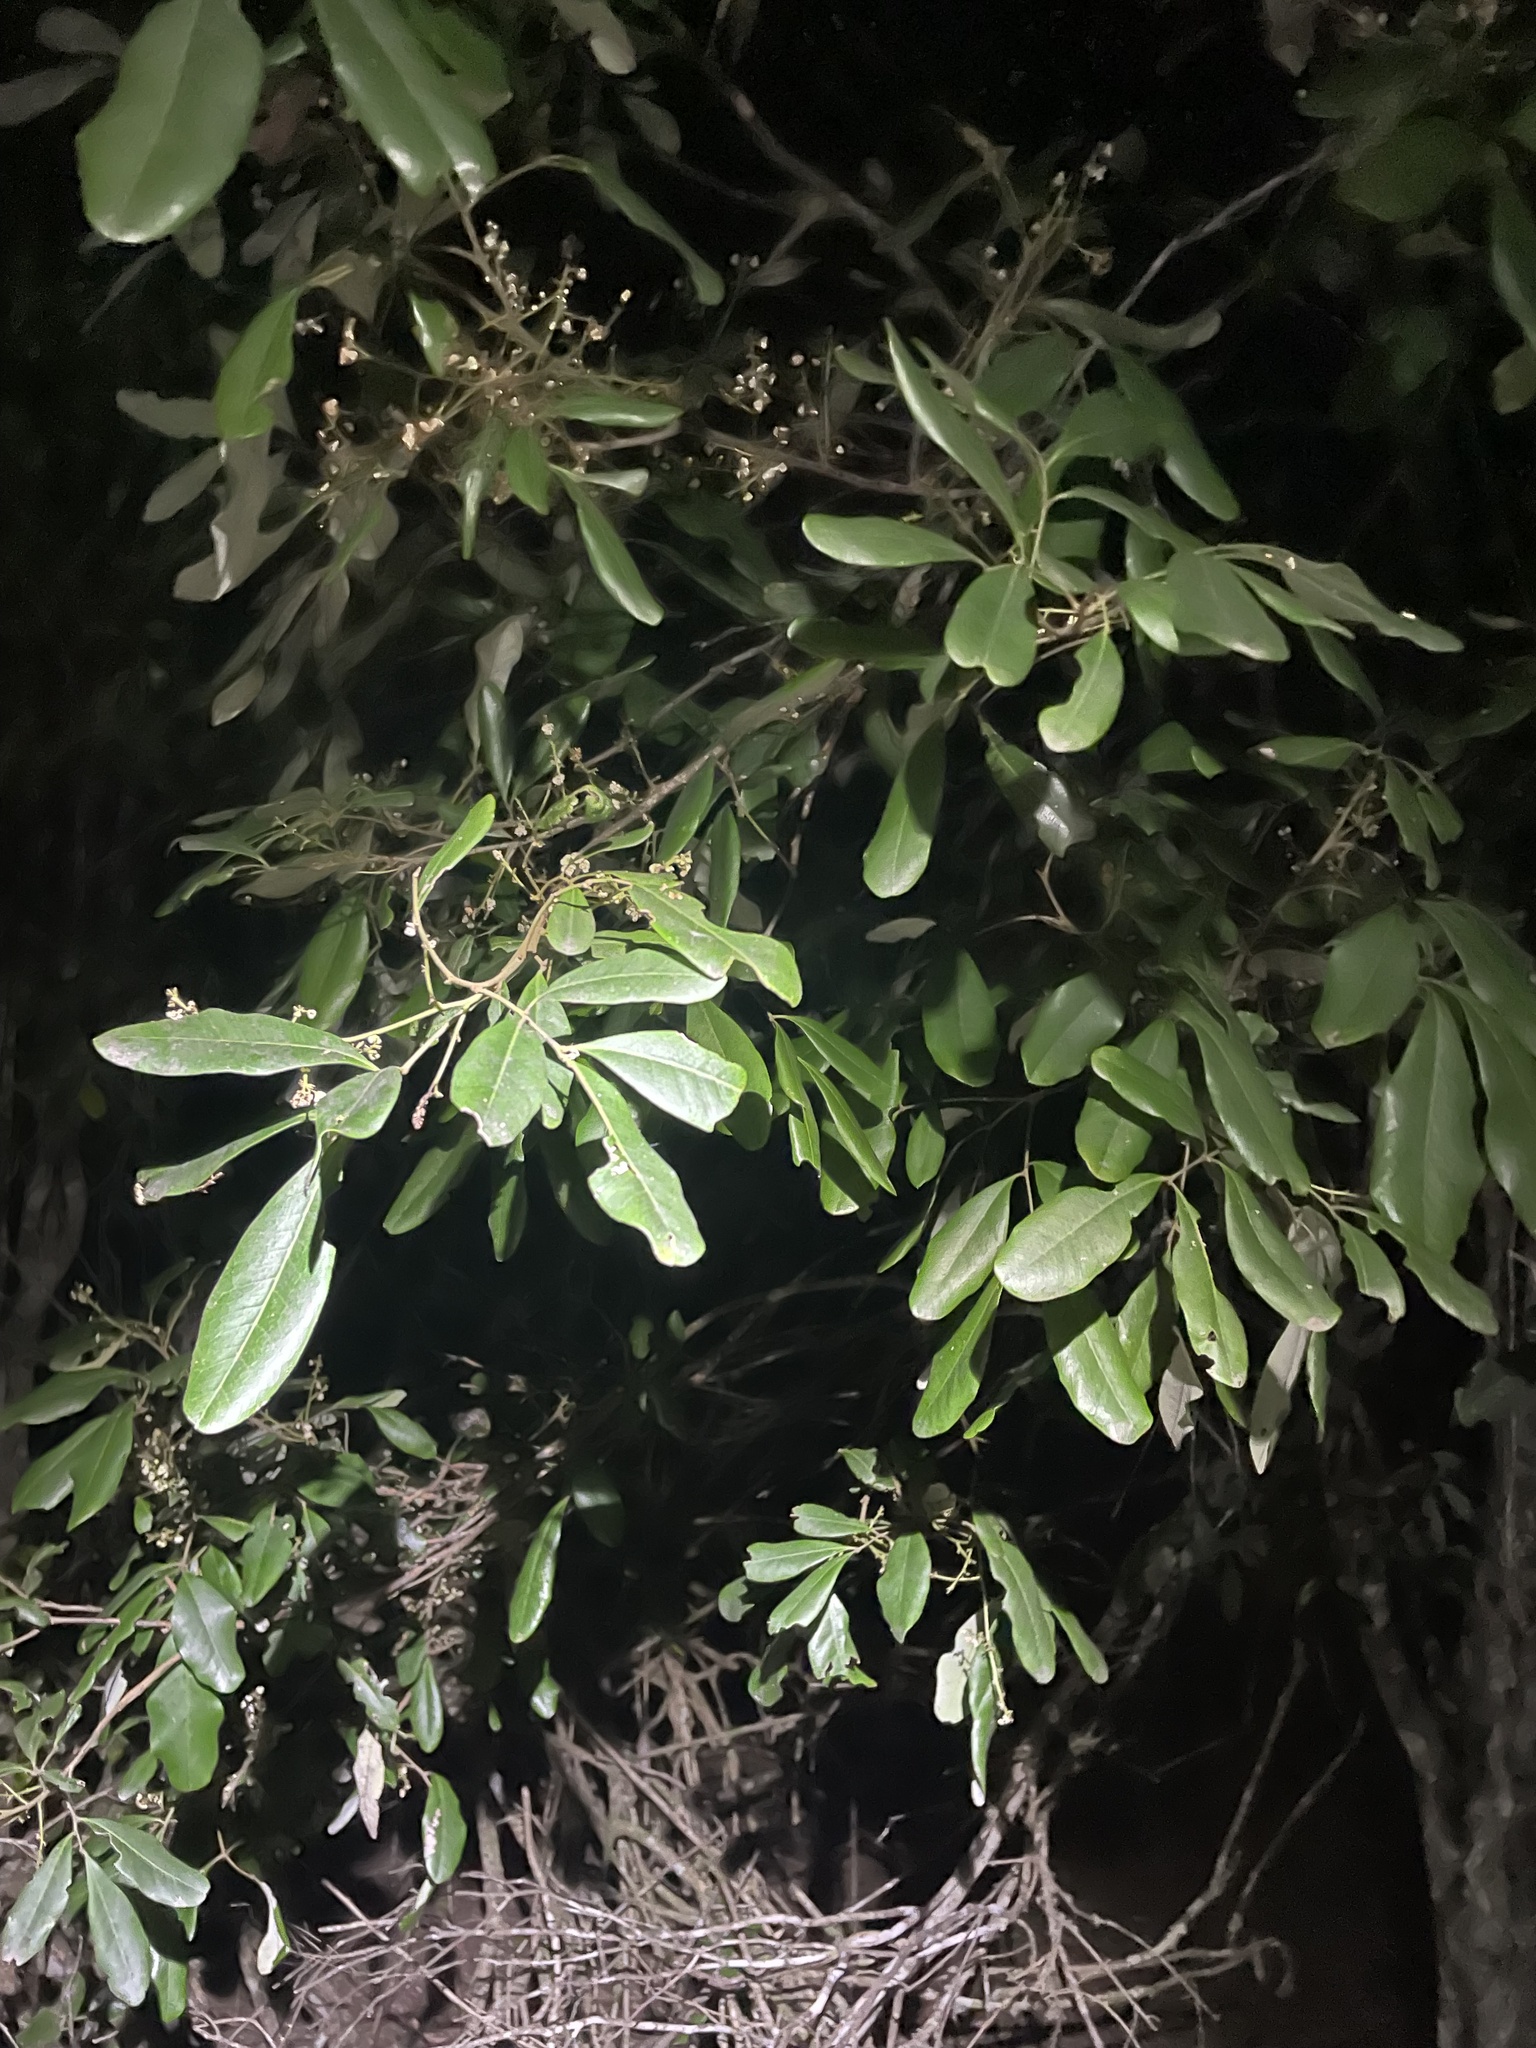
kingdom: Plantae
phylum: Tracheophyta
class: Magnoliopsida
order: Sapindales
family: Sapindaceae
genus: Guioa
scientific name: Guioa semiglauca
